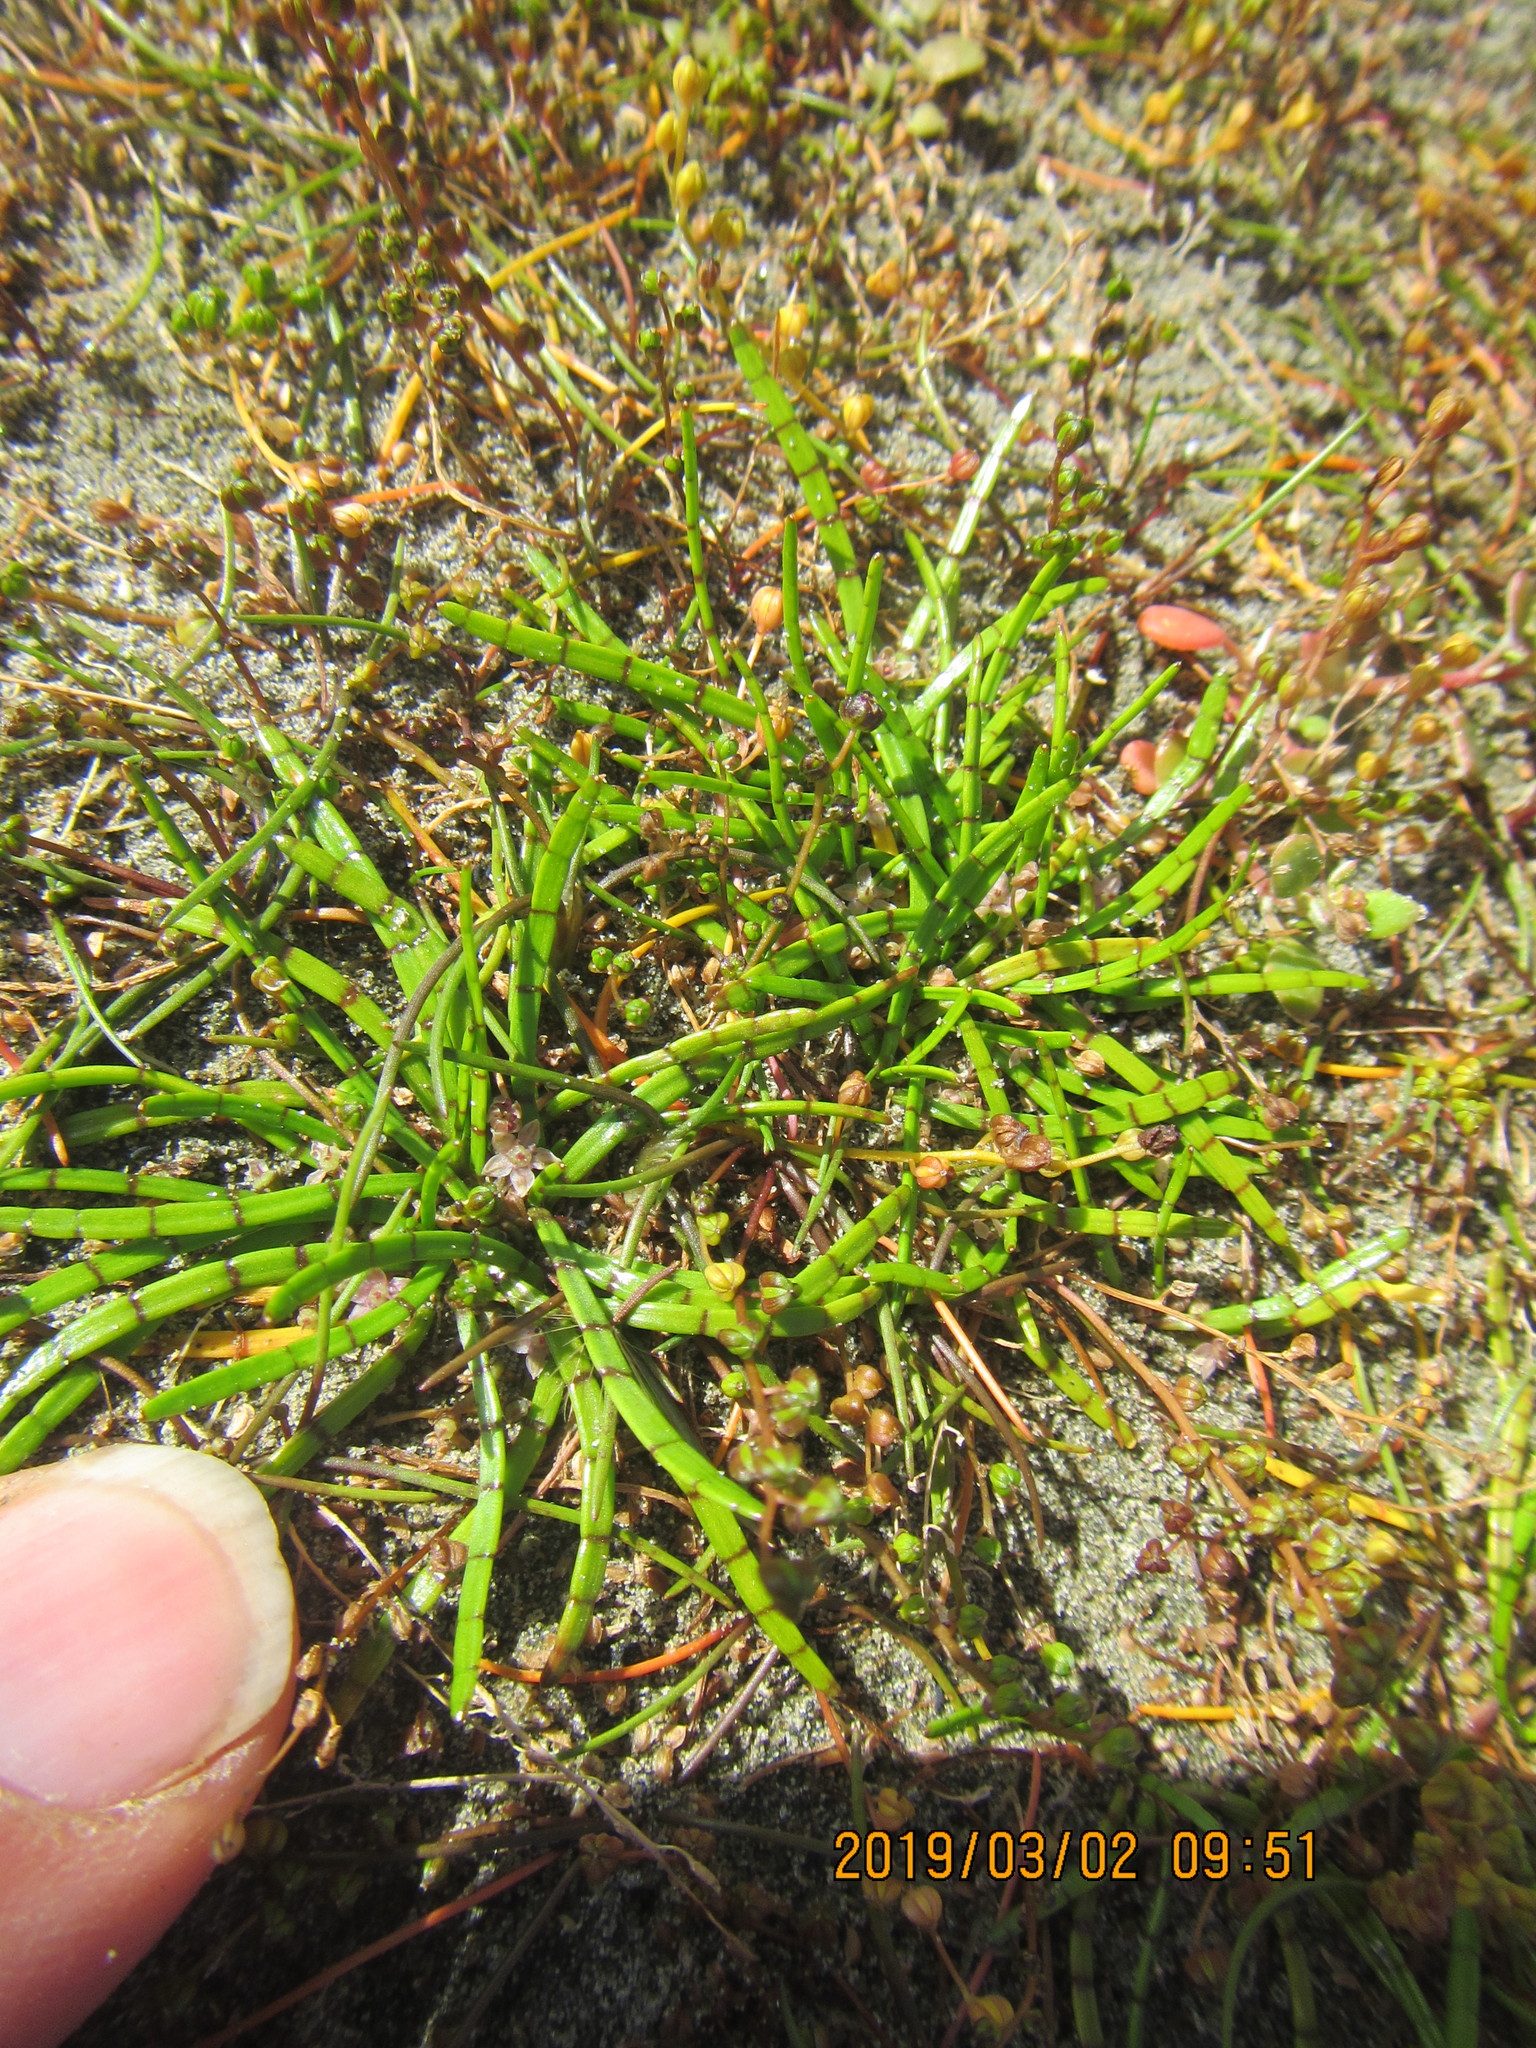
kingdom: Plantae
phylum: Tracheophyta
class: Magnoliopsida
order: Apiales
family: Apiaceae
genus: Lilaeopsis
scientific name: Lilaeopsis novae-zelandiae
